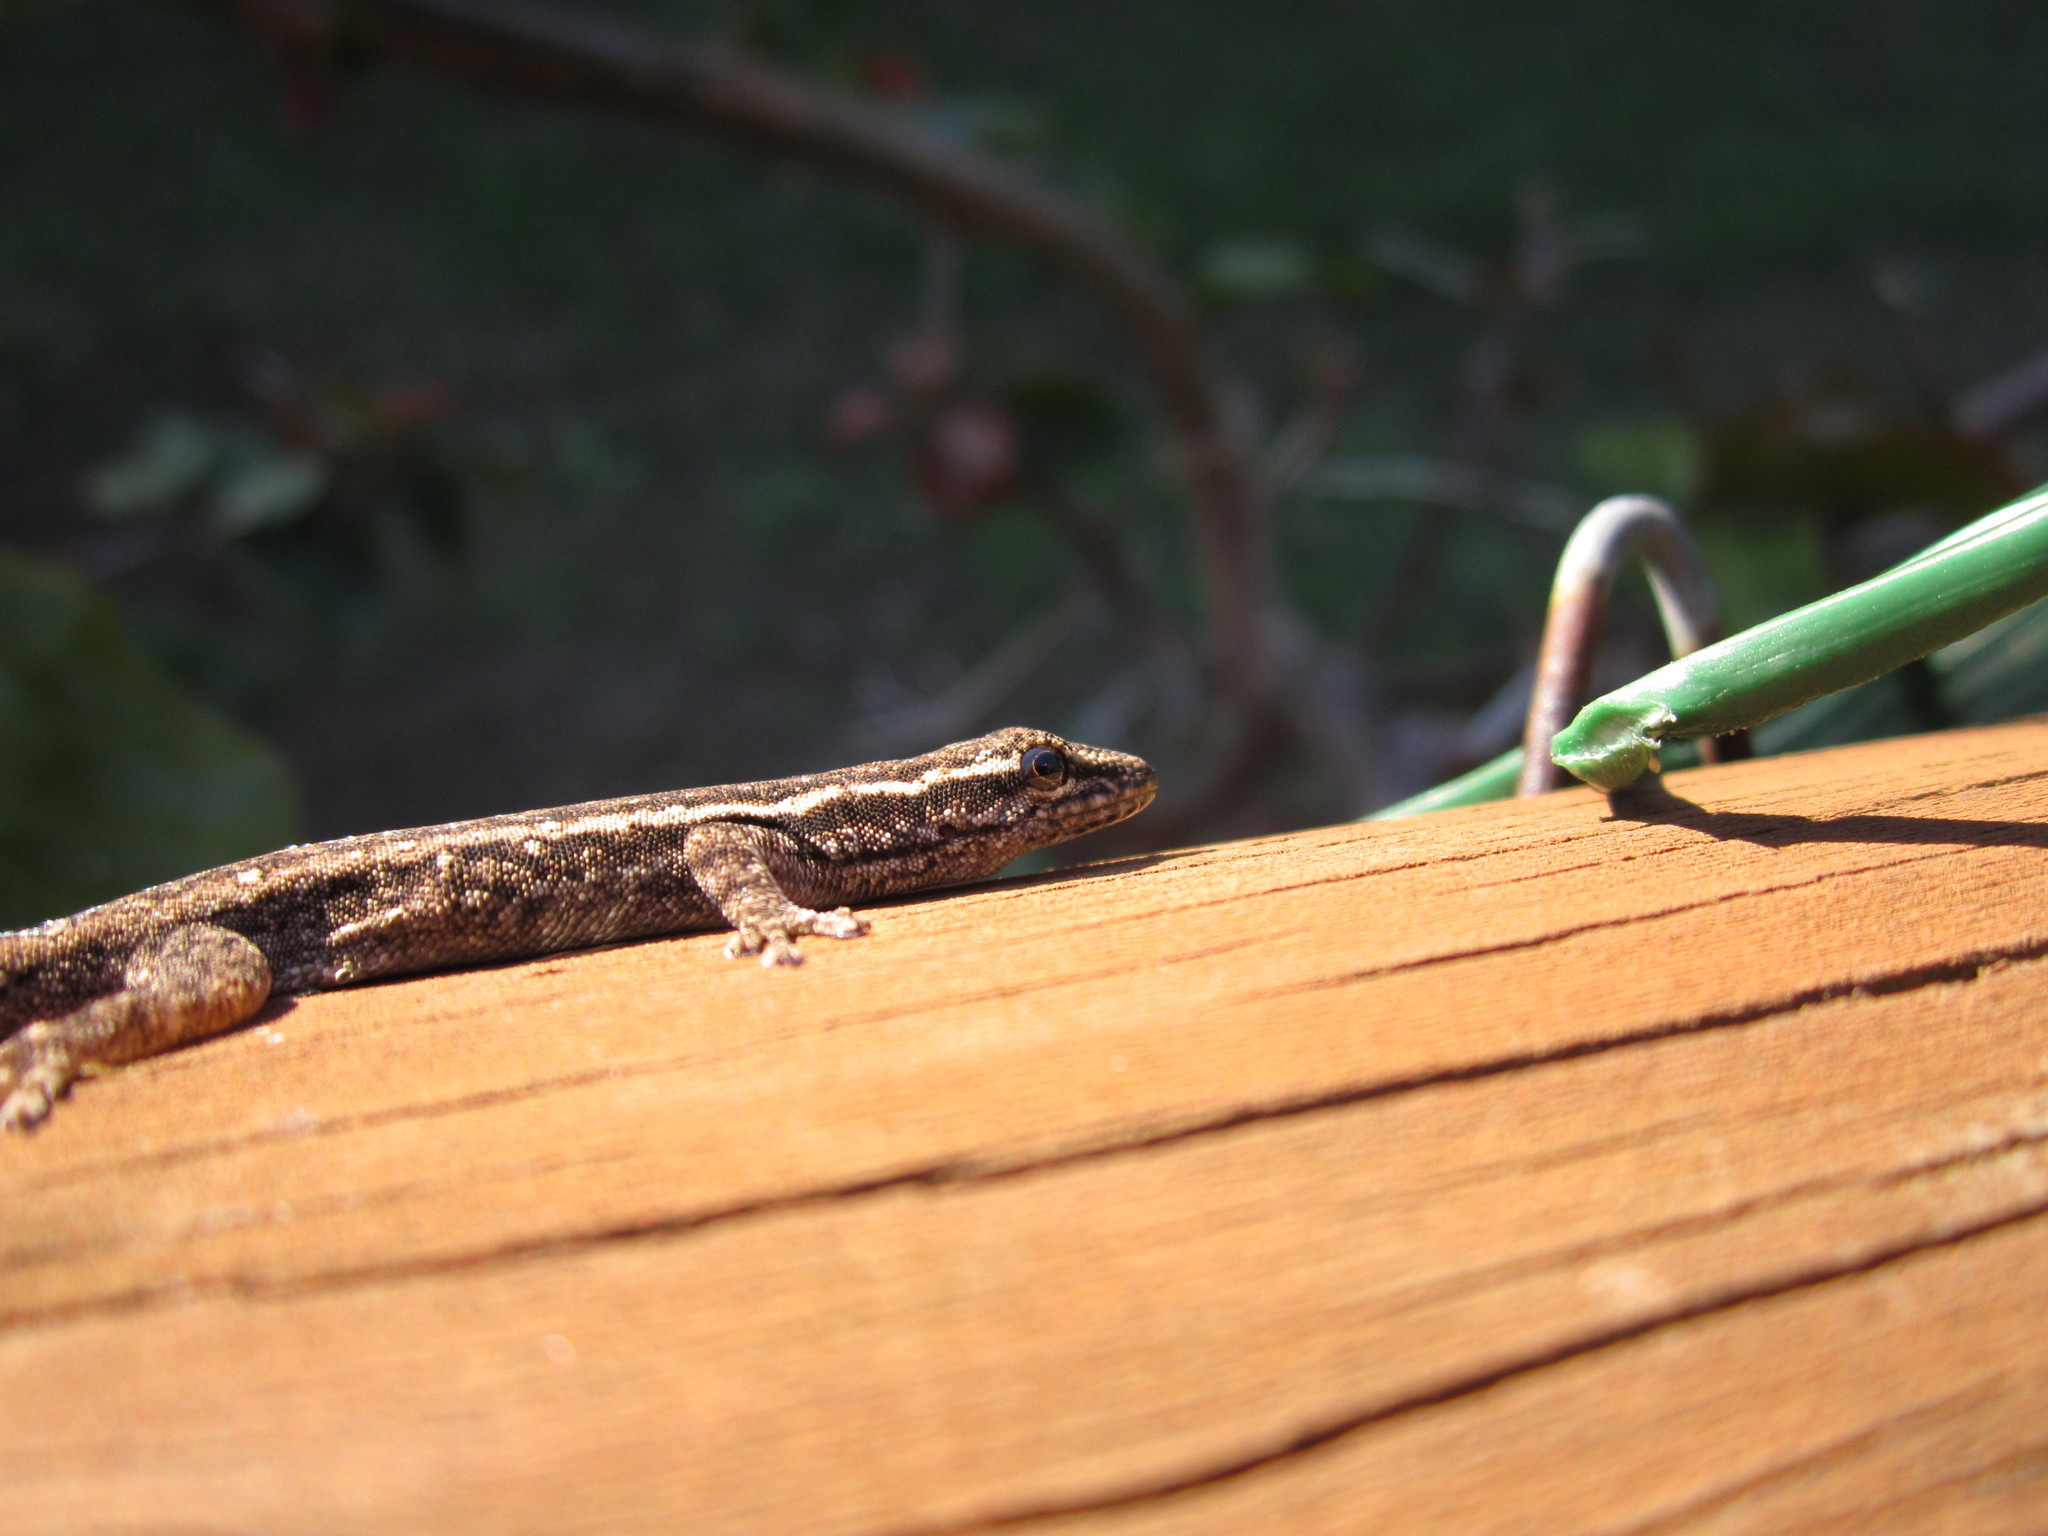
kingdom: Animalia
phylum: Chordata
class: Squamata
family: Gekkonidae
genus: Lygodactylus
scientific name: Lygodactylus capensis
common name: Cape dwarf gecko
